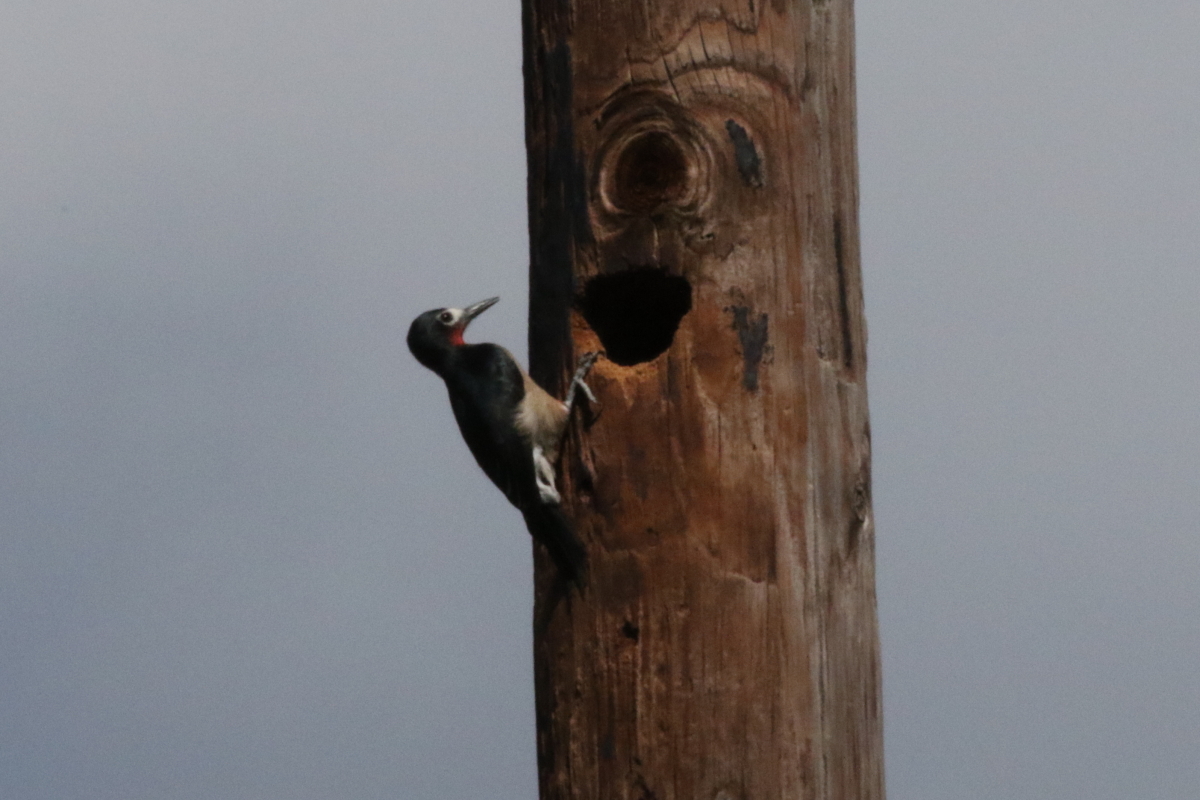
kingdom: Animalia
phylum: Chordata
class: Aves
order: Piciformes
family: Picidae
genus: Melanerpes
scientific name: Melanerpes portoricensis
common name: Puerto rican woodpecker
